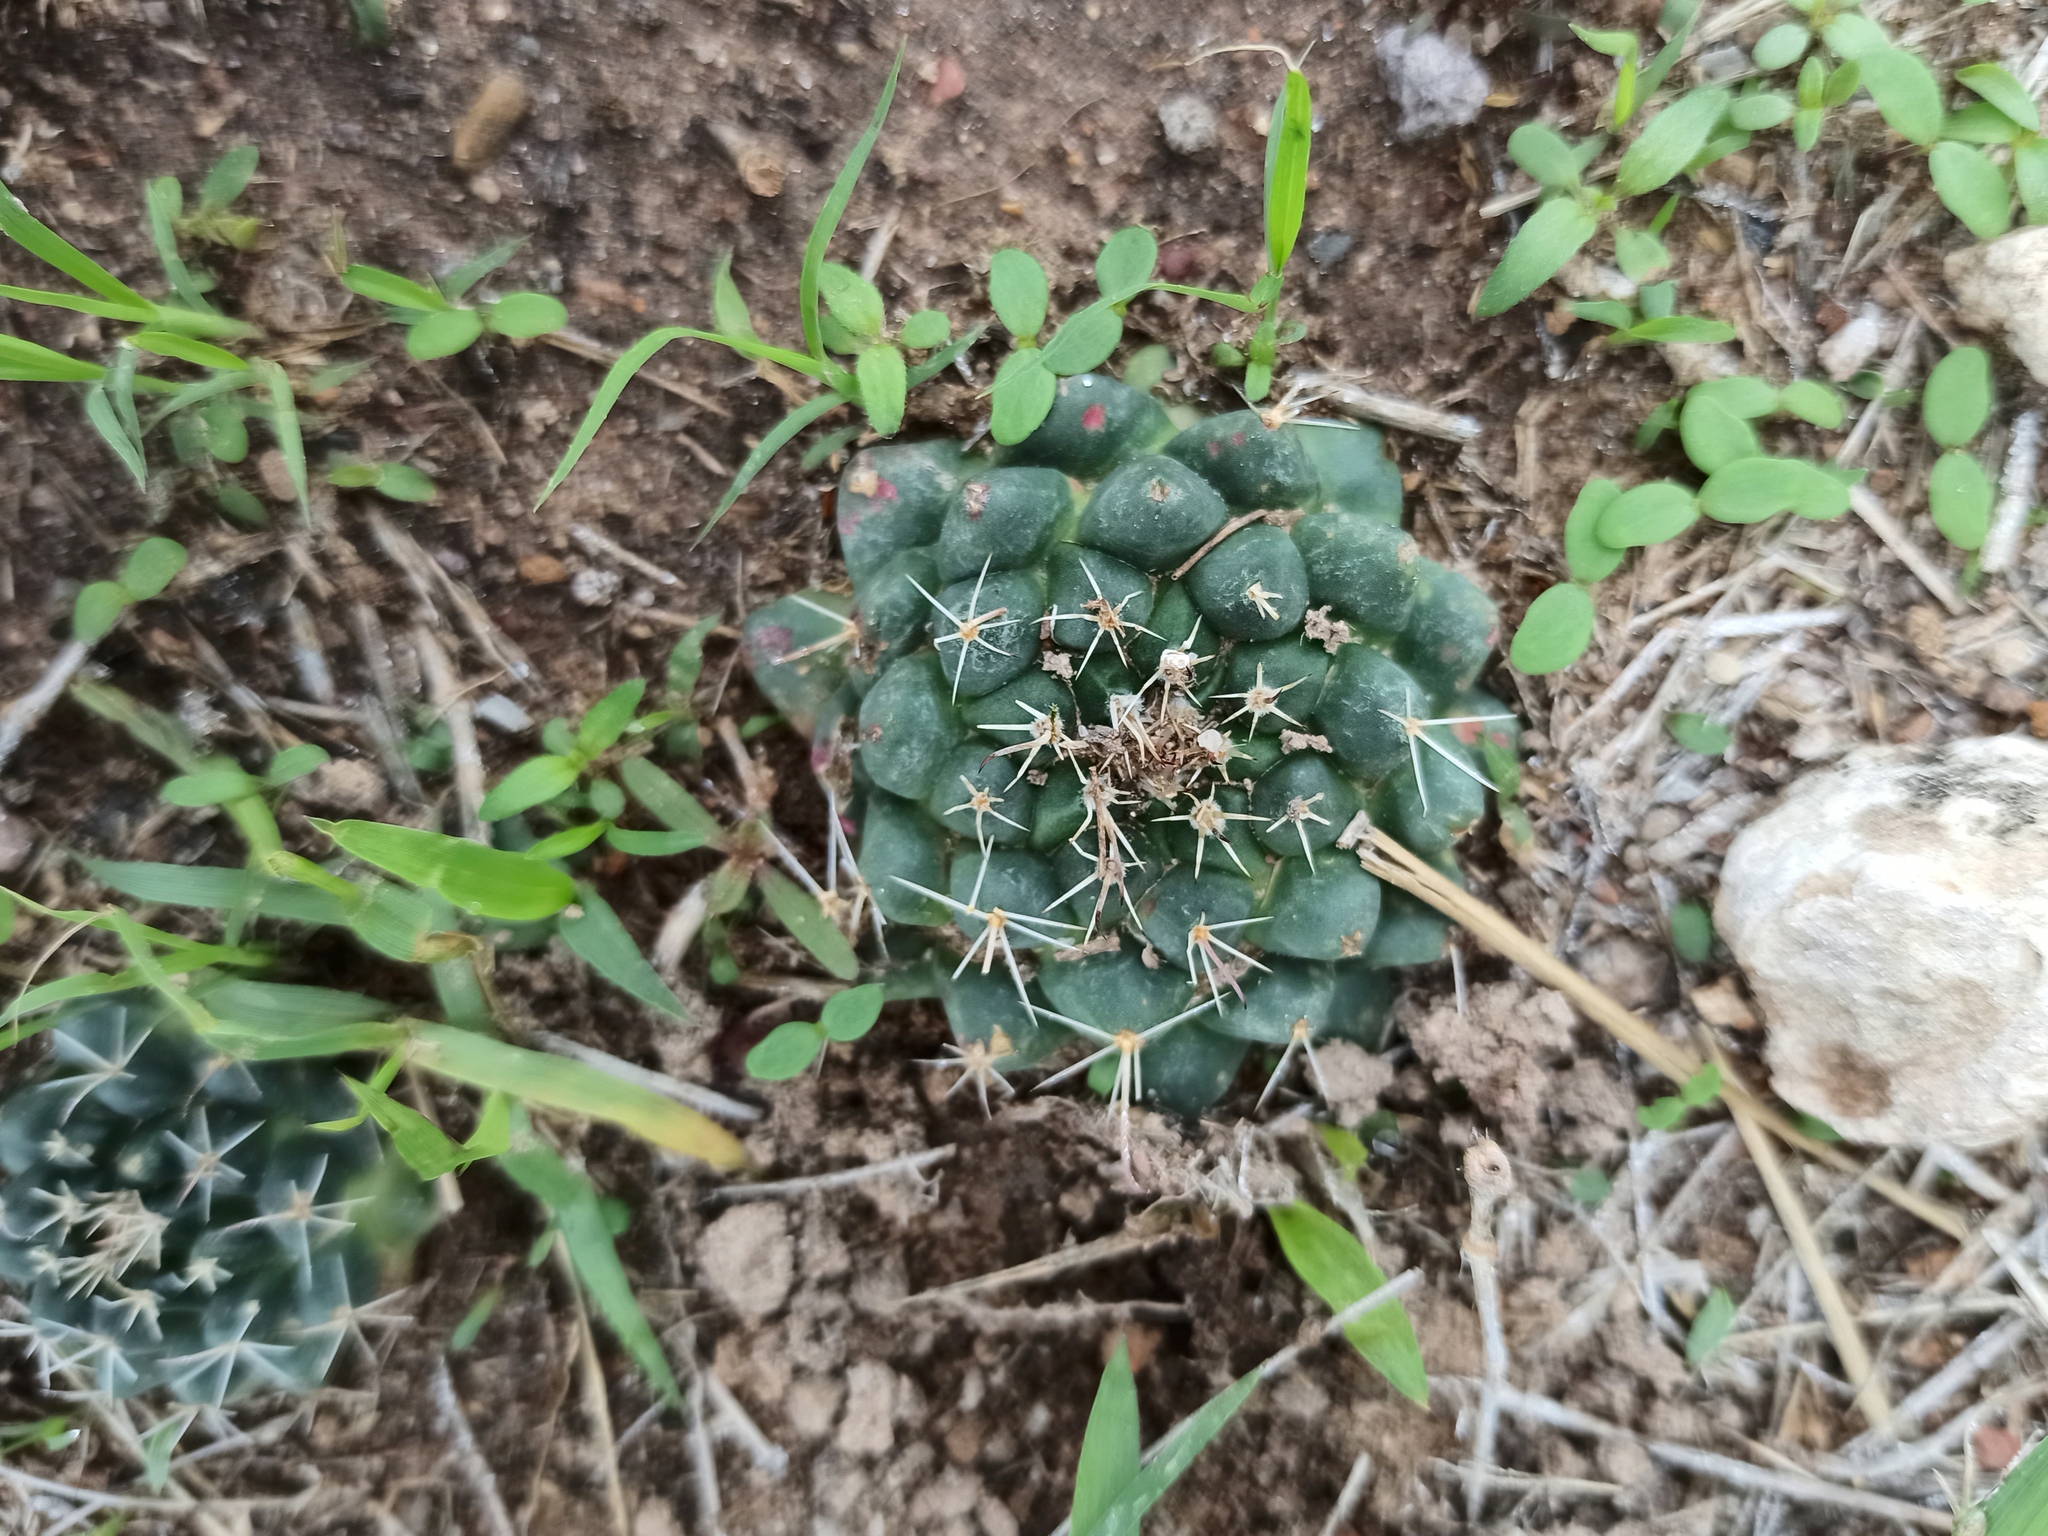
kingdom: Plantae
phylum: Tracheophyta
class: Magnoliopsida
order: Caryophyllales
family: Cactaceae
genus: Mammillaria
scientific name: Mammillaria uncinata
